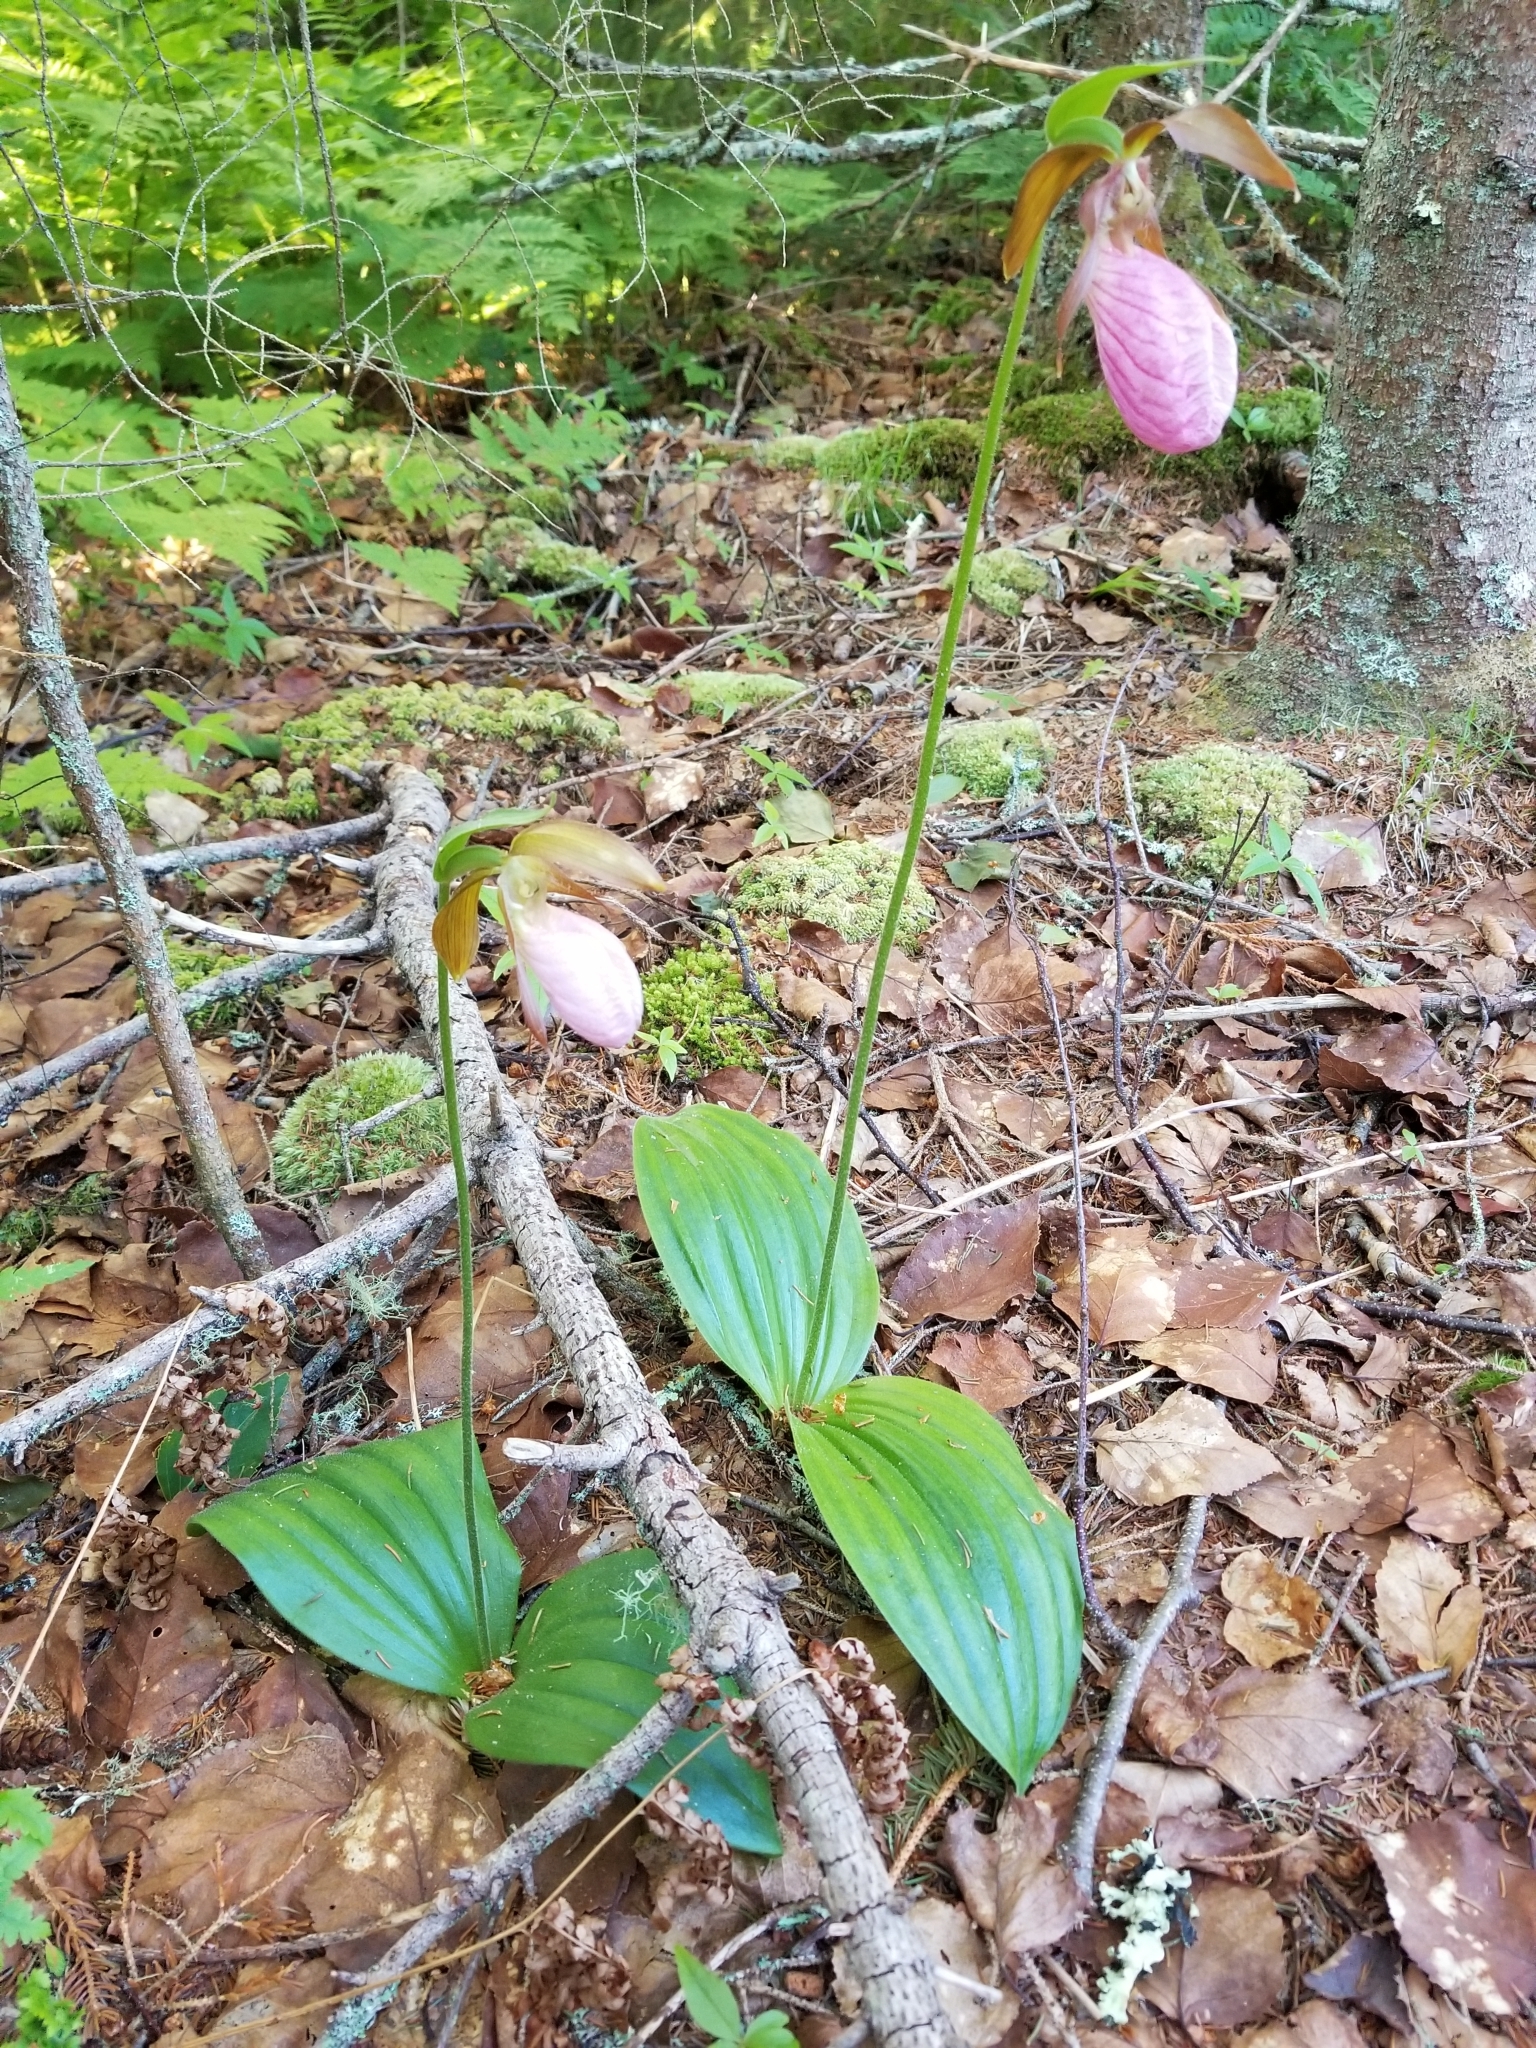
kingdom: Plantae
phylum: Tracheophyta
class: Liliopsida
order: Asparagales
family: Orchidaceae
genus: Cypripedium
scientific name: Cypripedium acaule
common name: Pink lady's-slipper
